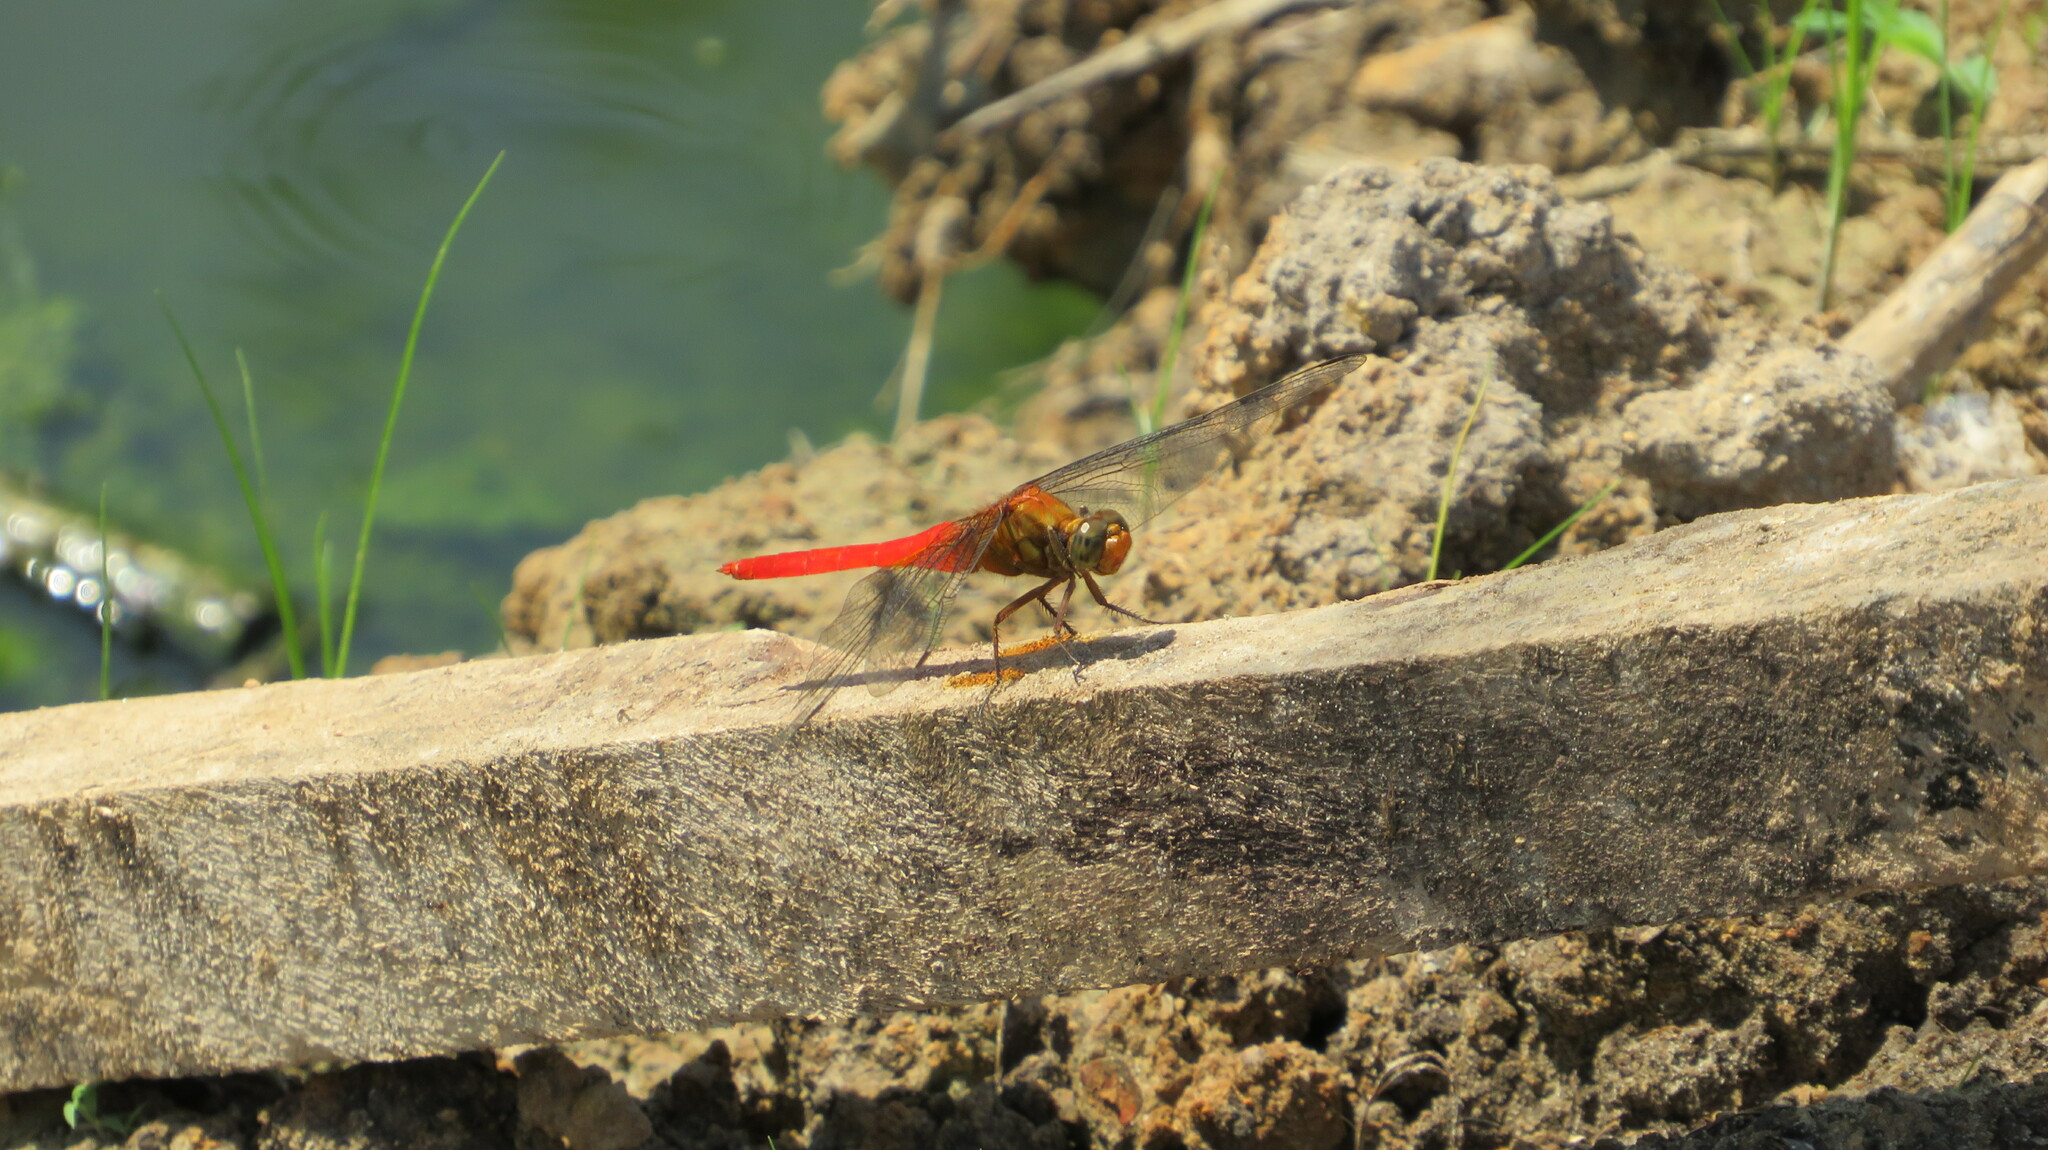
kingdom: Animalia
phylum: Arthropoda
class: Insecta
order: Odonata
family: Libellulidae
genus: Orthetrum
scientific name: Orthetrum testaceum
